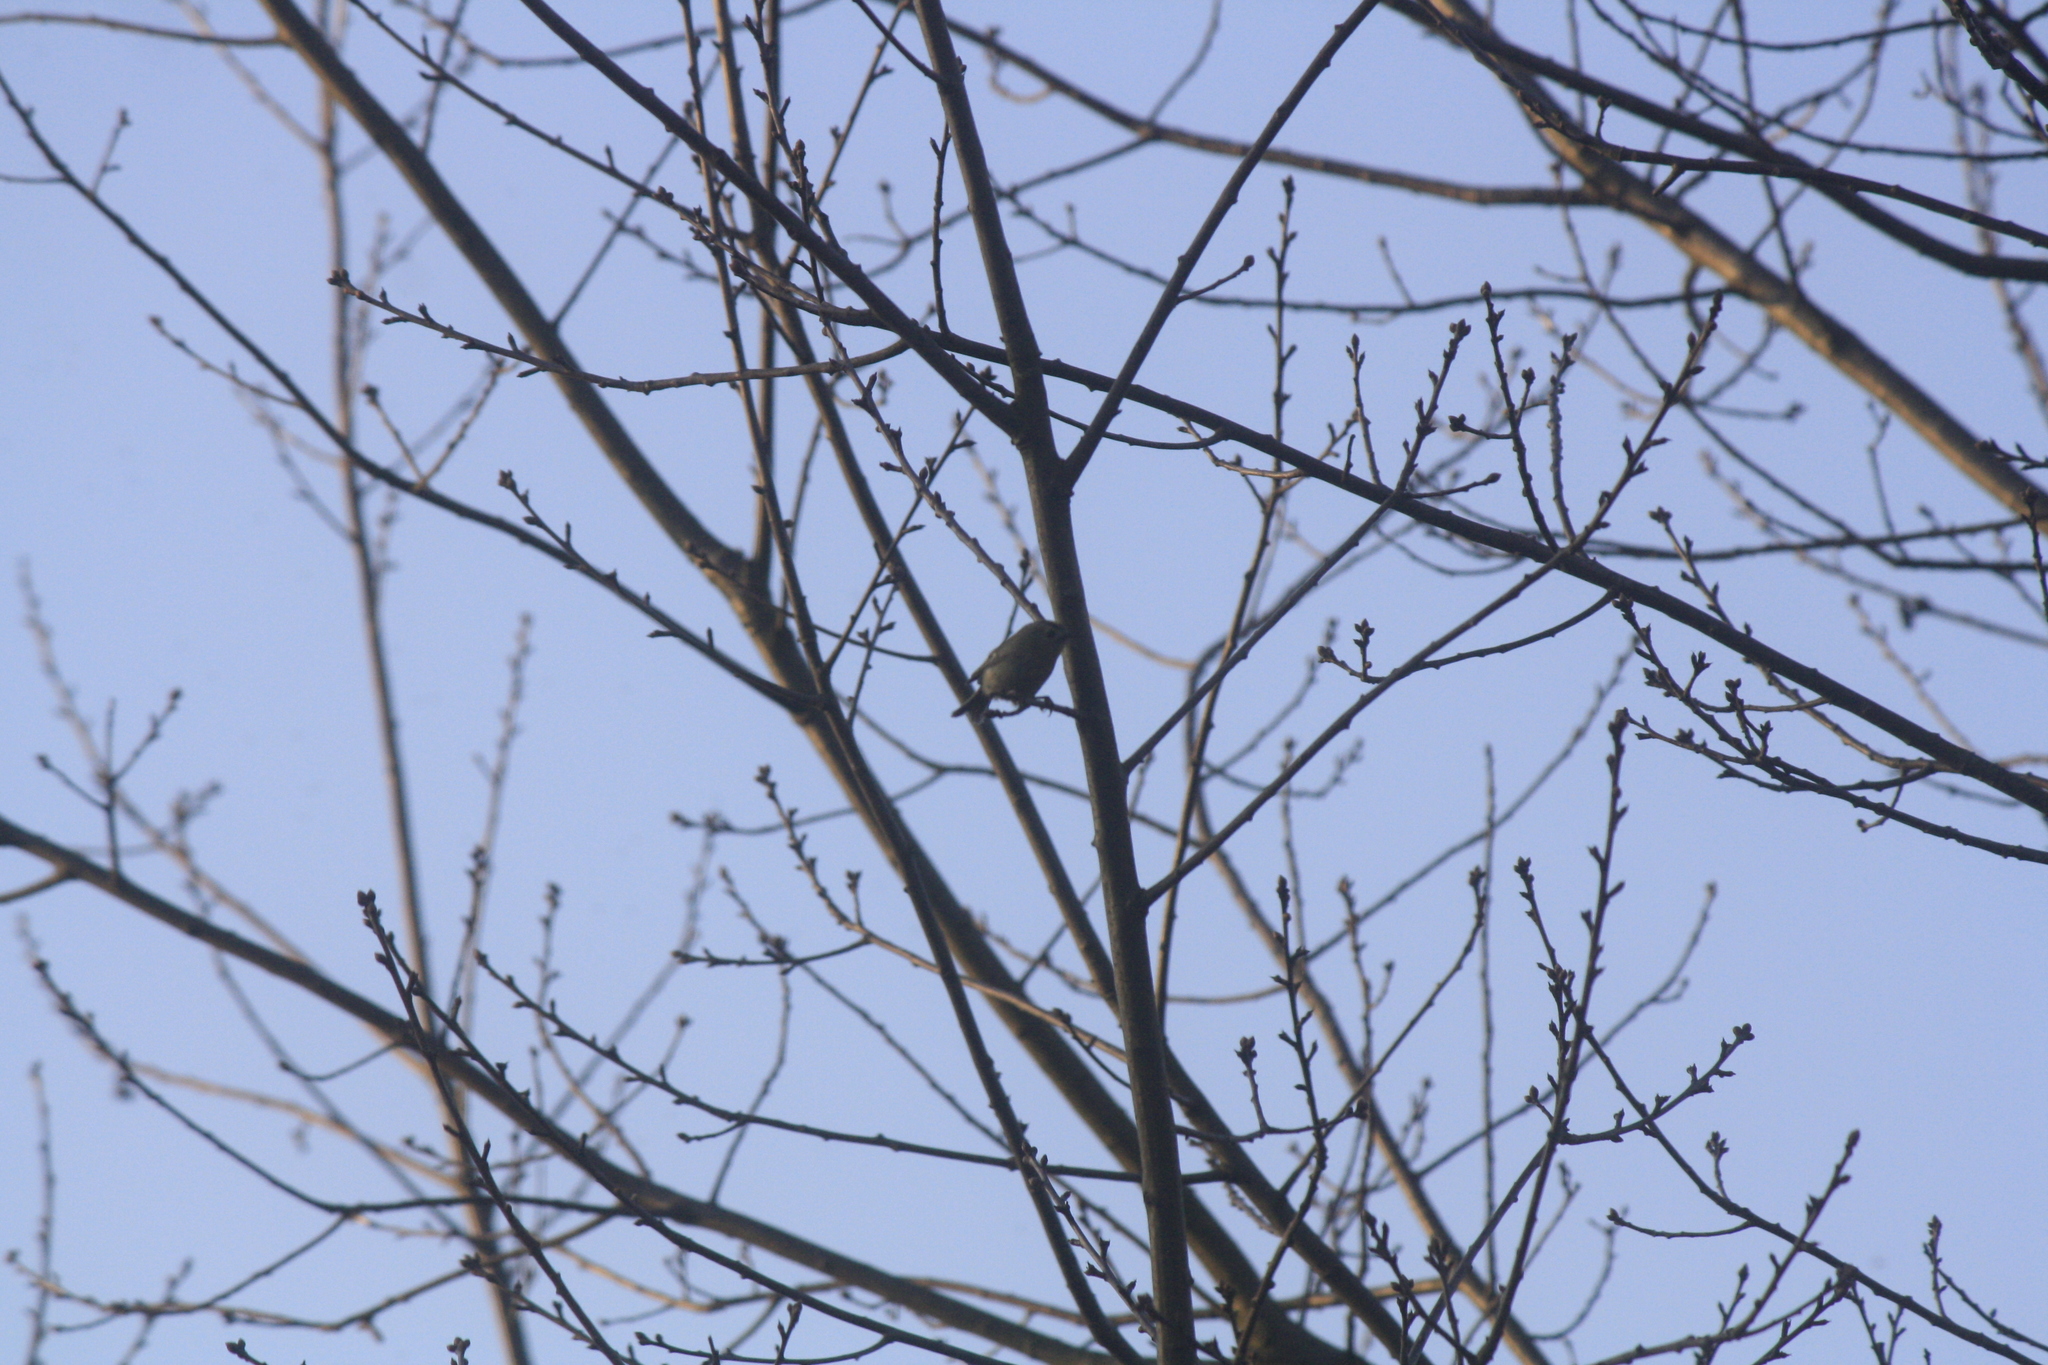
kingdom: Animalia
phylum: Chordata
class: Aves
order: Passeriformes
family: Regulidae
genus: Regulus
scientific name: Regulus regulus
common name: Goldcrest
